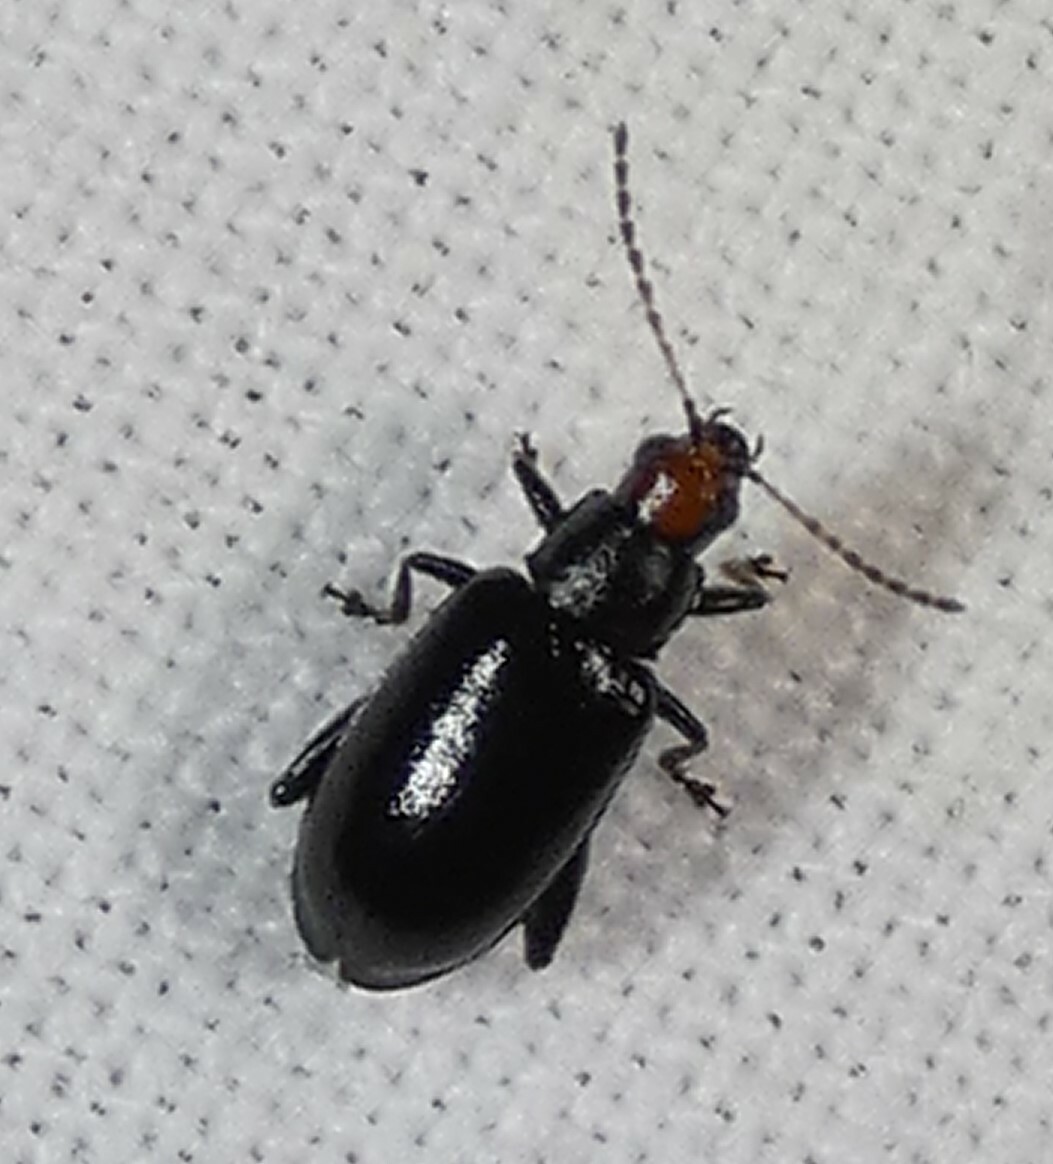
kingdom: Animalia
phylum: Arthropoda
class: Insecta
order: Coleoptera
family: Chrysomelidae
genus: Systena
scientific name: Systena frontalis
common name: Red-headed flea beetle
